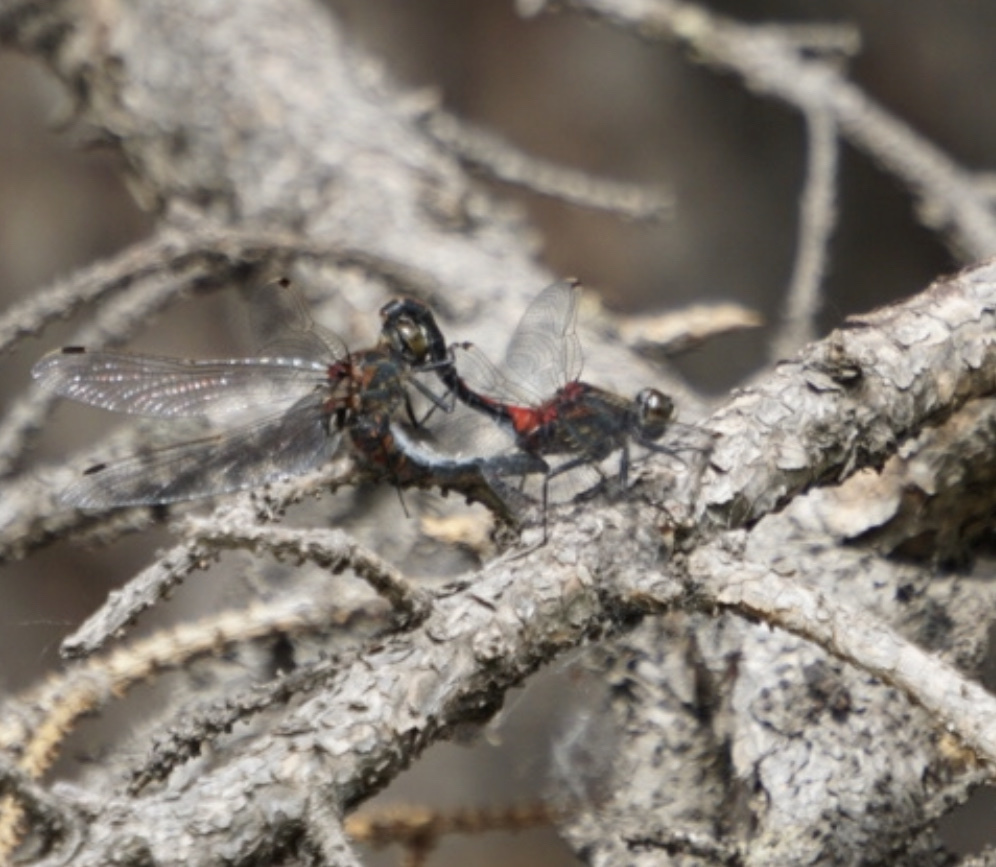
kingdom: Animalia
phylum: Arthropoda
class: Insecta
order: Odonata
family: Libellulidae
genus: Leucorrhinia
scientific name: Leucorrhinia borealis
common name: Boreal whiteface
